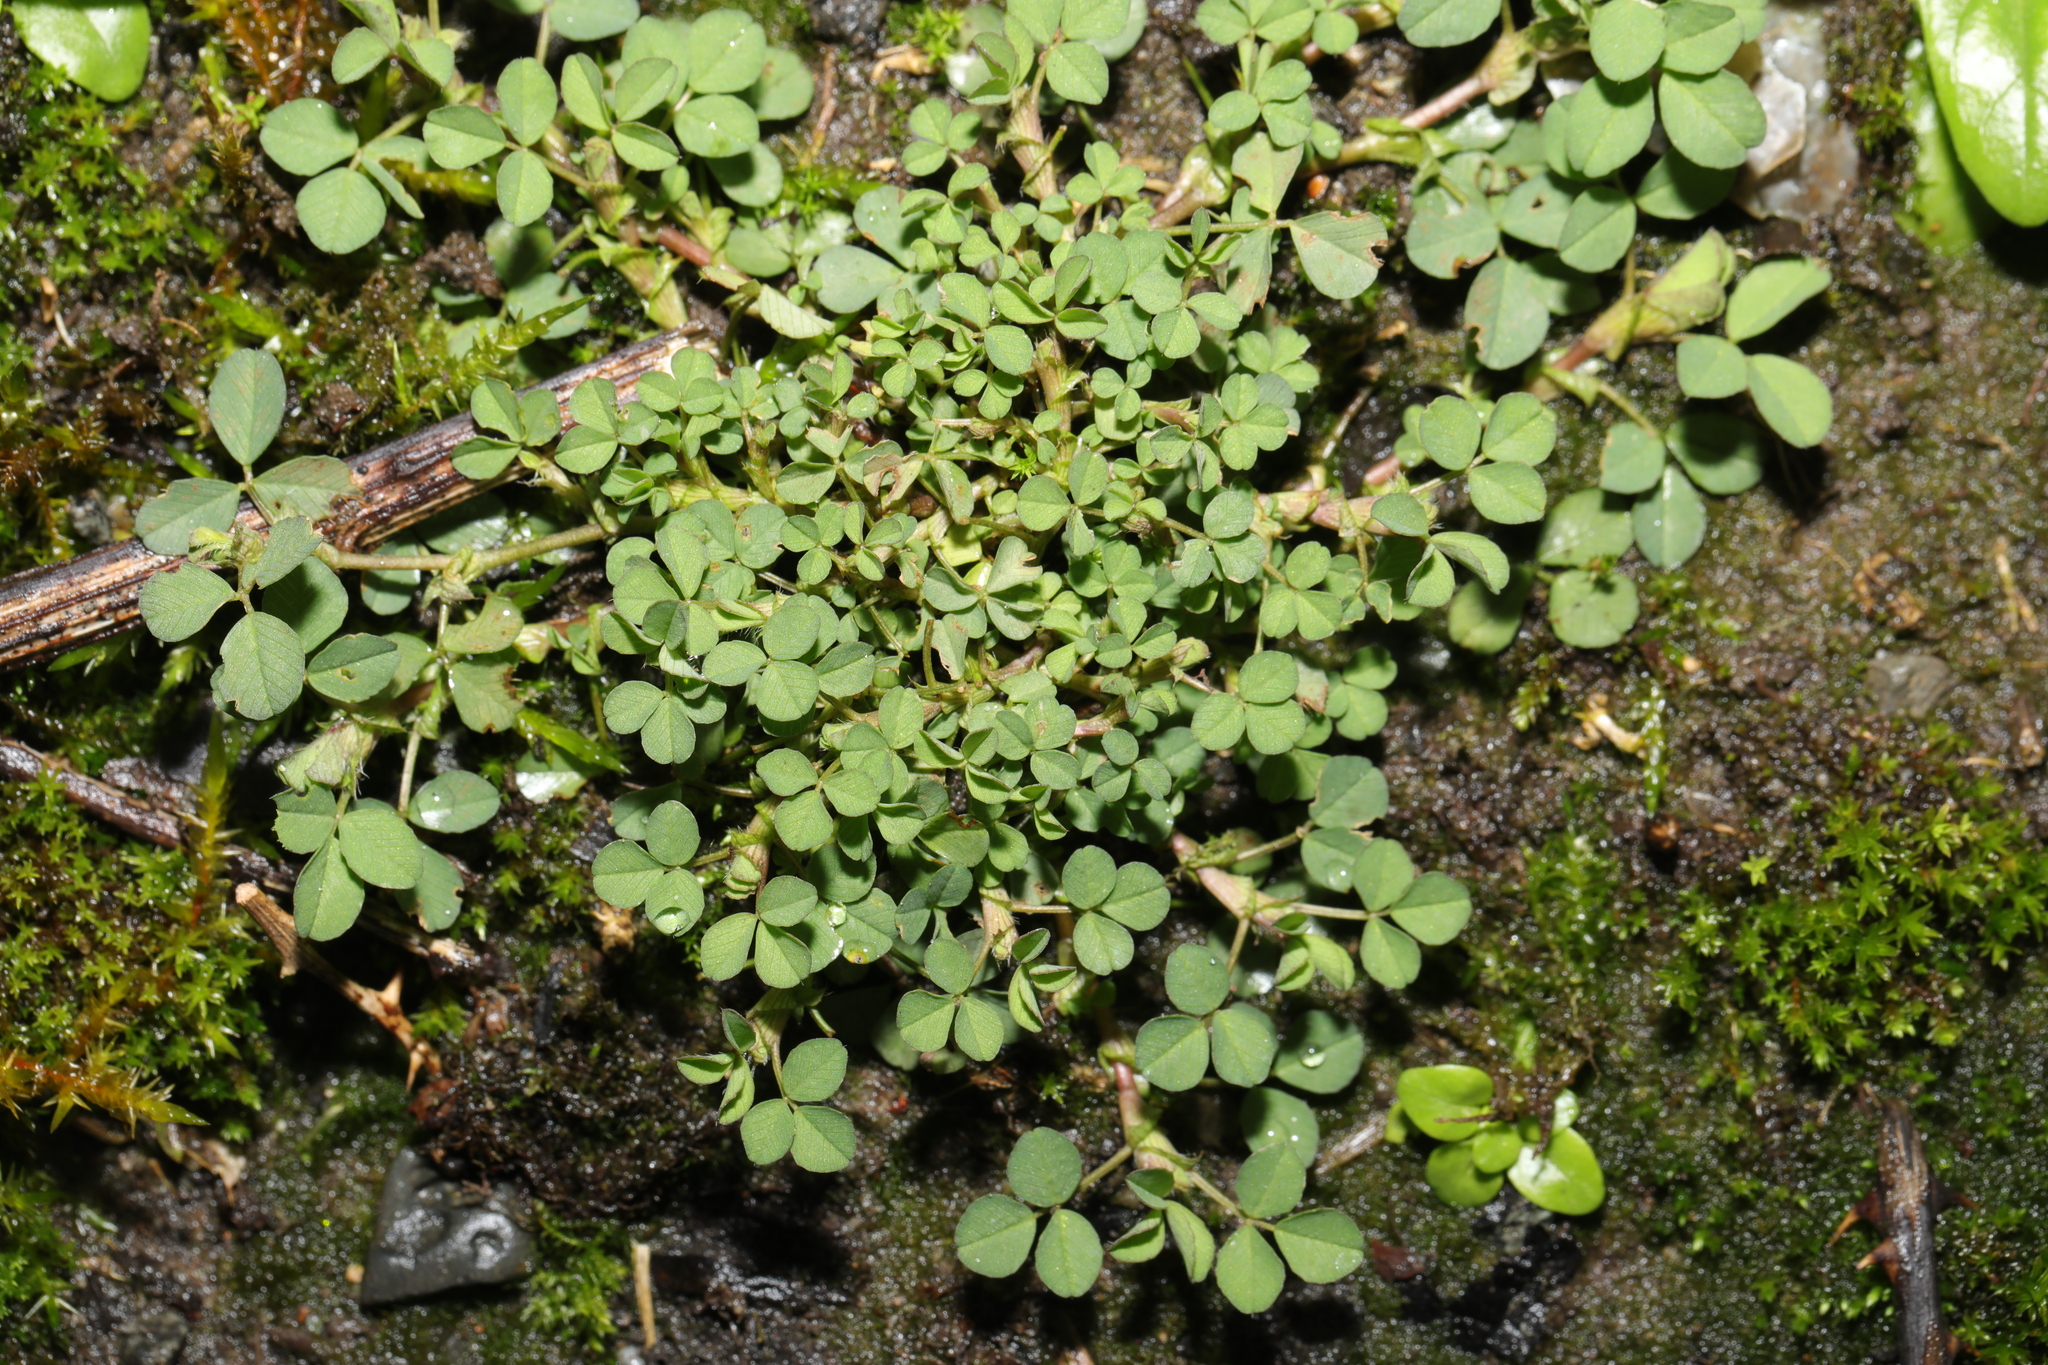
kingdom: Plantae
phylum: Tracheophyta
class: Magnoliopsida
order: Fabales
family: Fabaceae
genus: Trifolium
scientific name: Trifolium dubium
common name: Suckling clover
